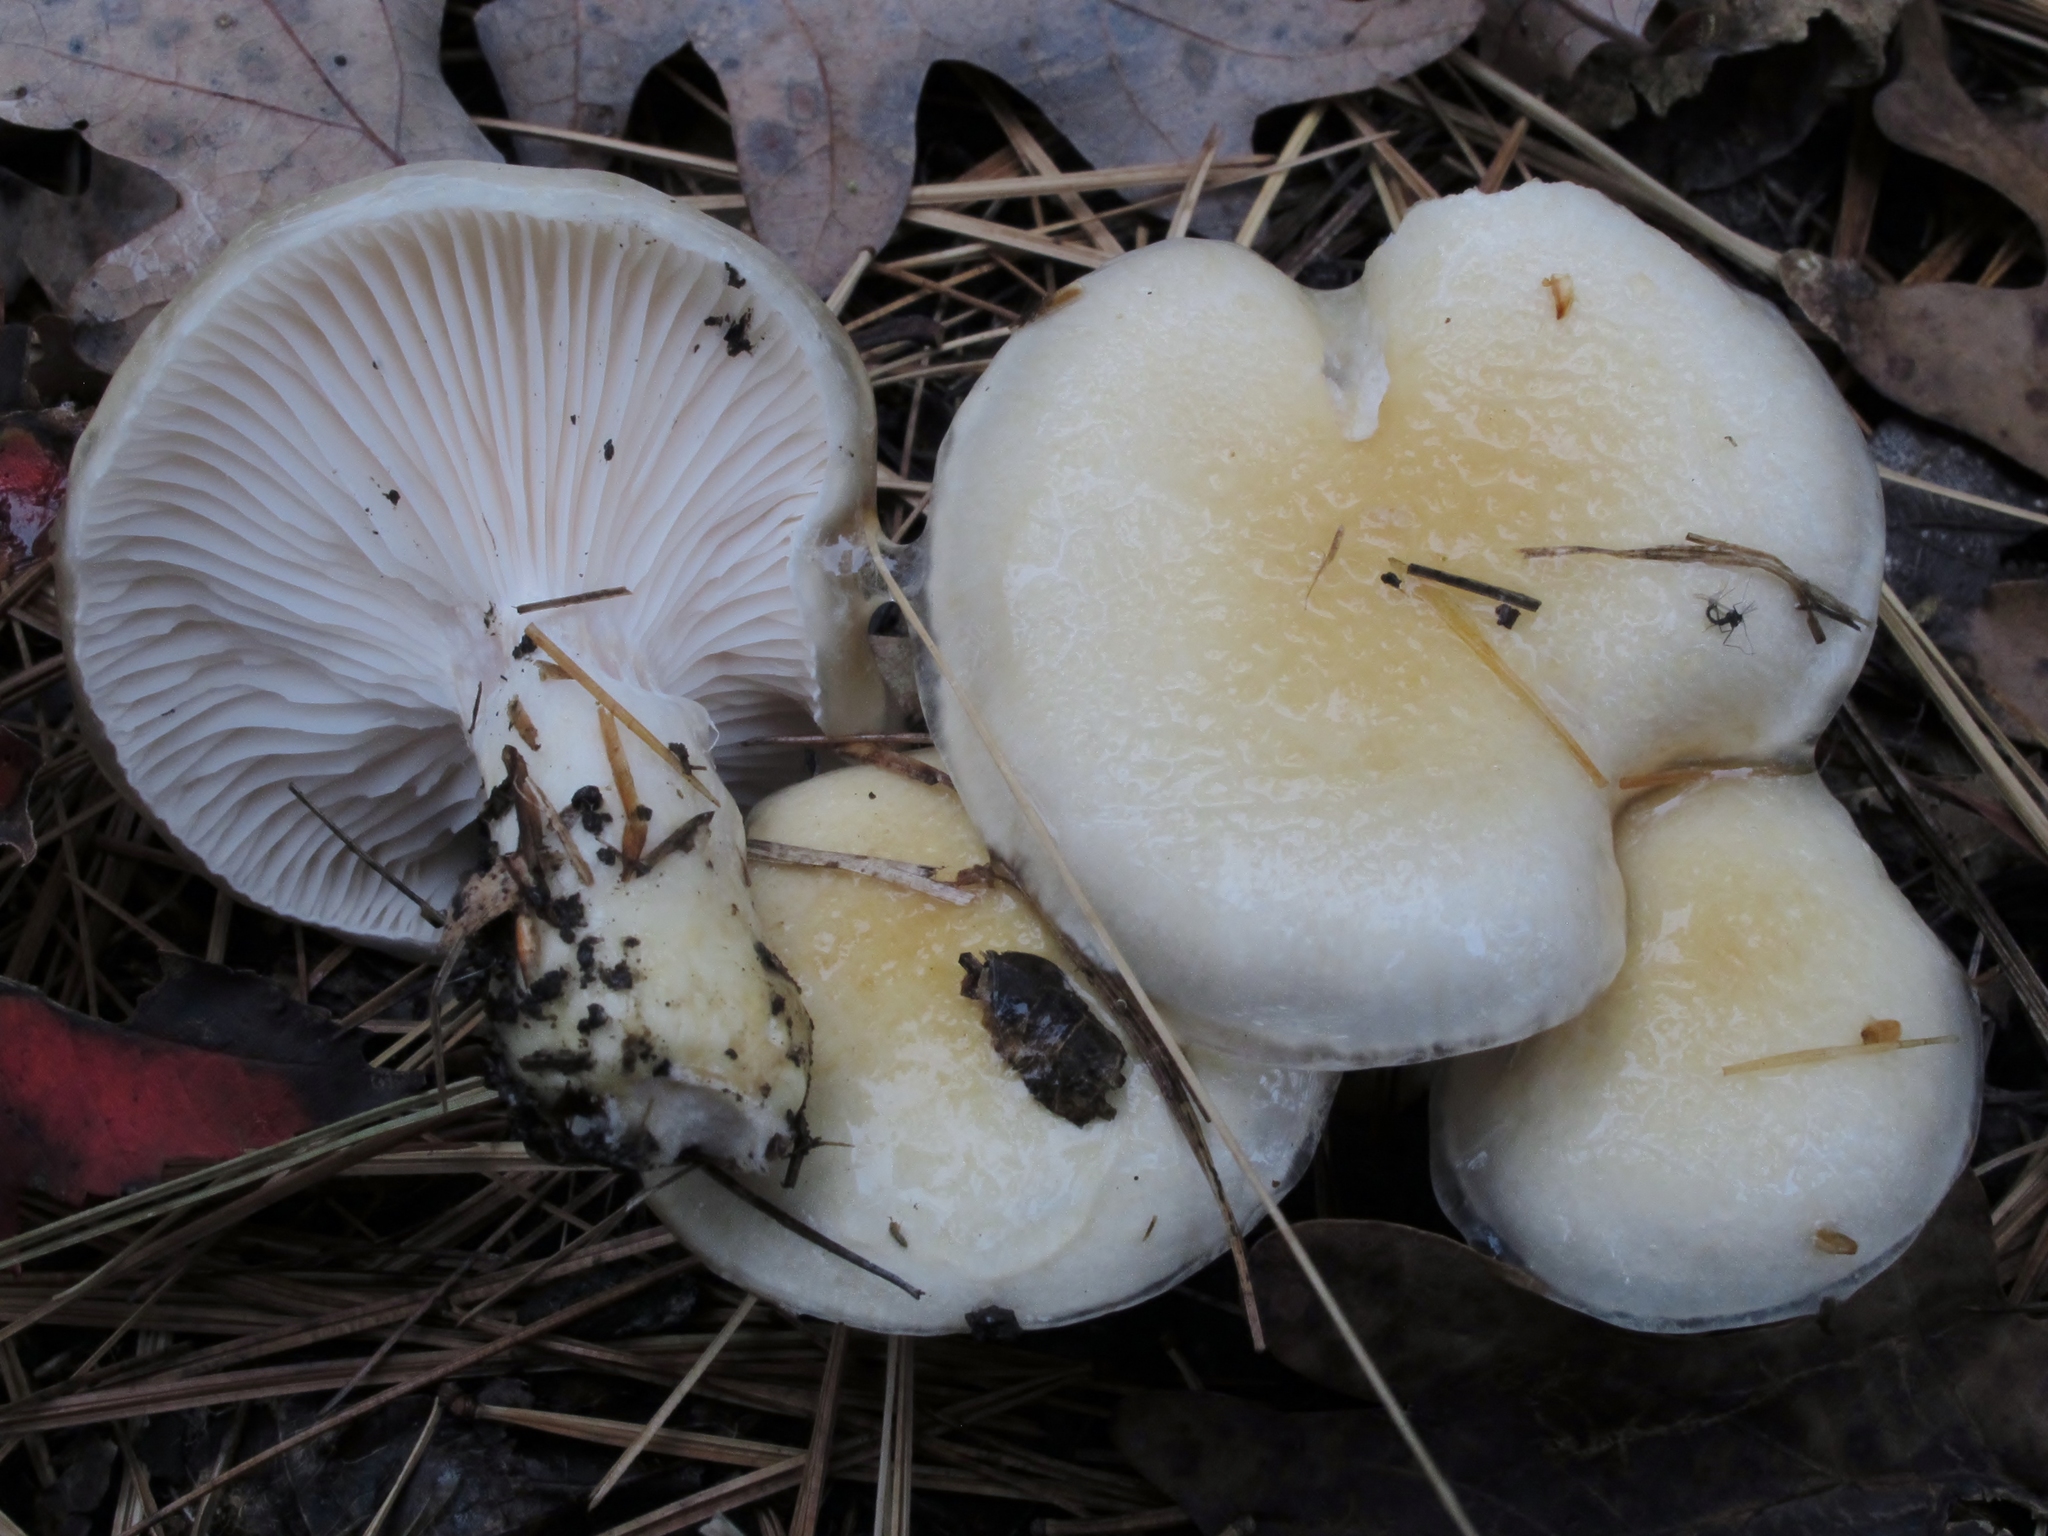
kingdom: Fungi
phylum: Basidiomycota
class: Agaricomycetes
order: Agaricales
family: Hygrophoraceae
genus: Hygrophorus
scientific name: Hygrophorus ligatus
